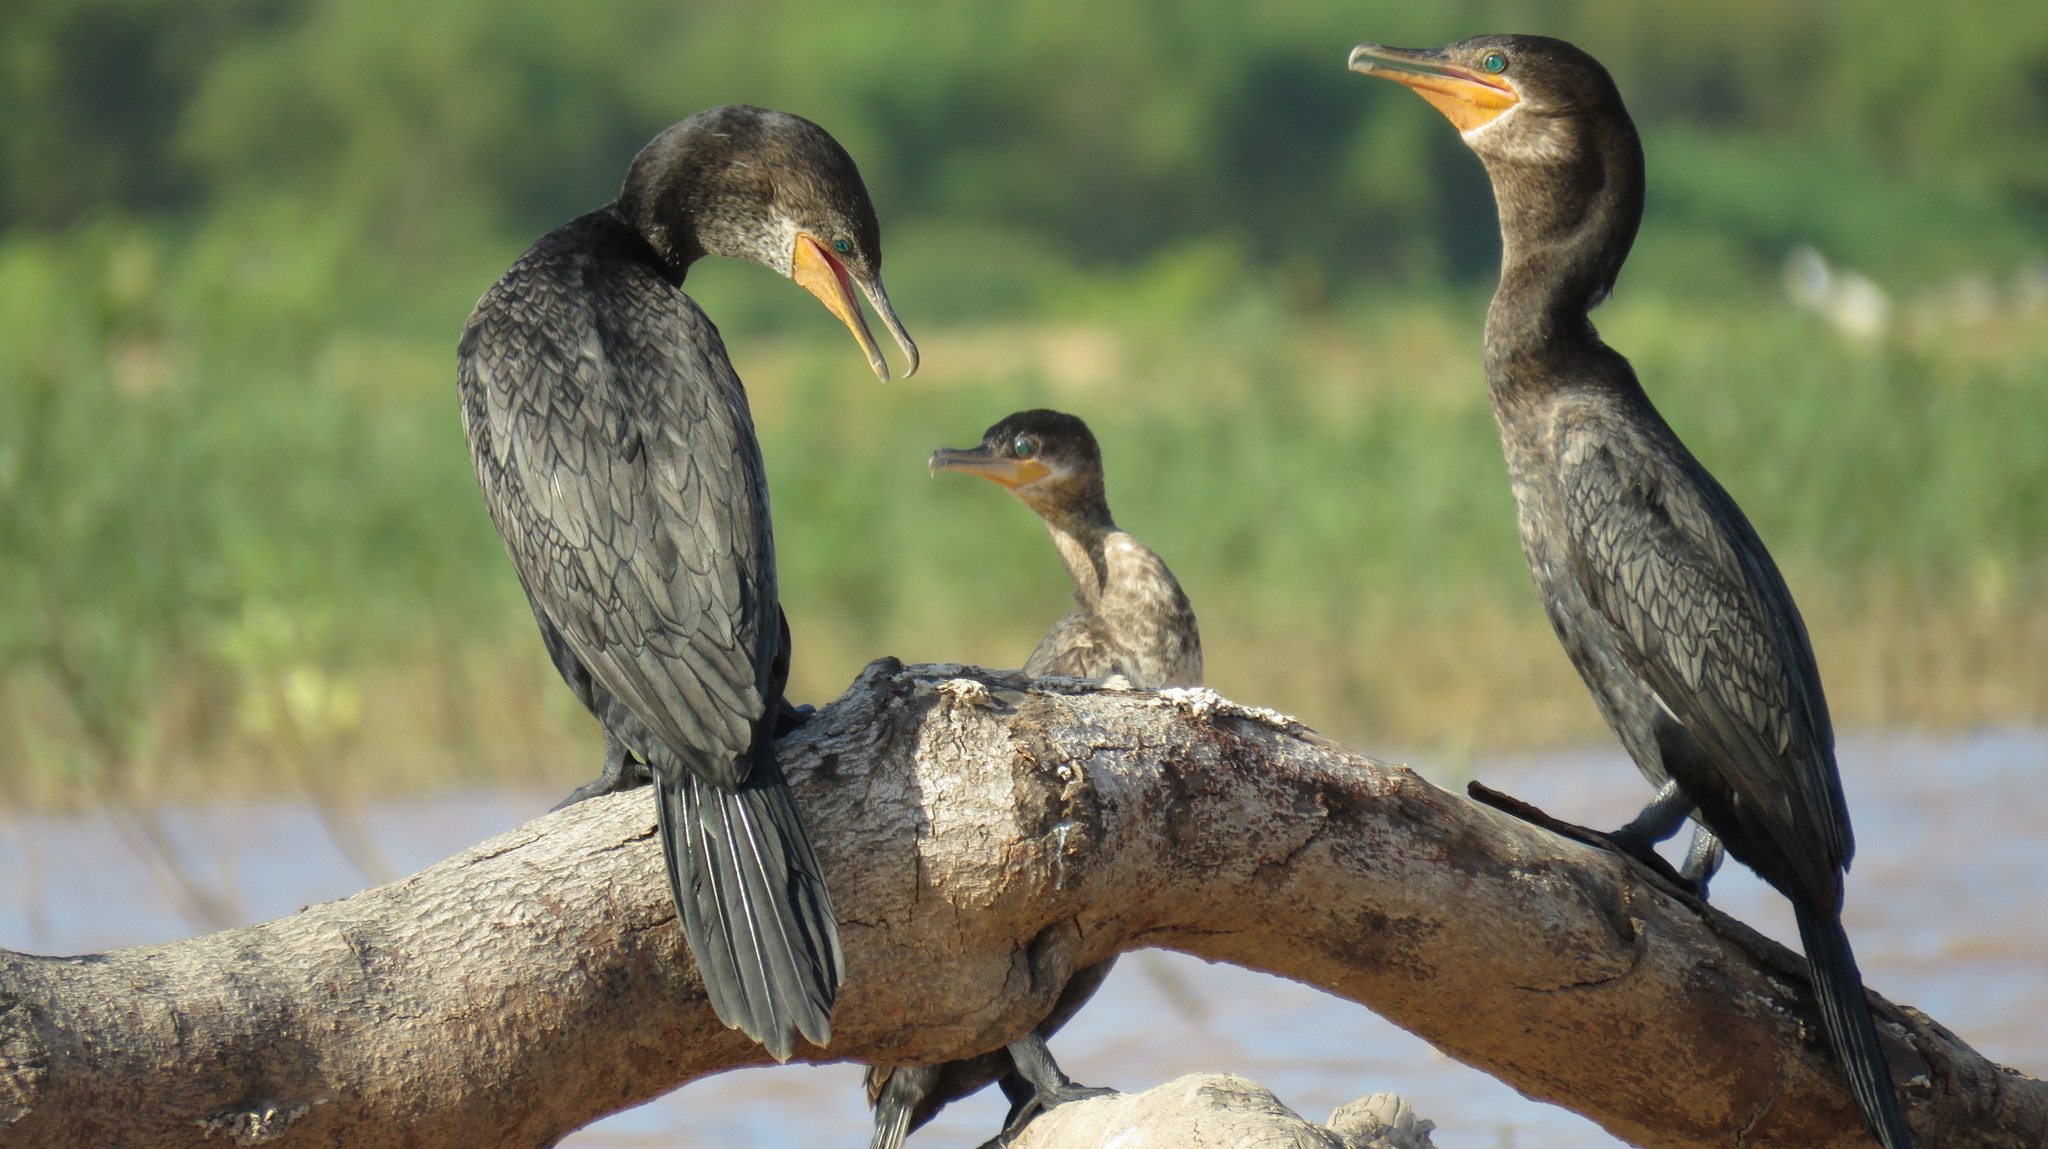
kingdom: Animalia
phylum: Chordata
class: Aves
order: Suliformes
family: Phalacrocoracidae
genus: Phalacrocorax
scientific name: Phalacrocorax brasilianus
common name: Neotropic cormorant
